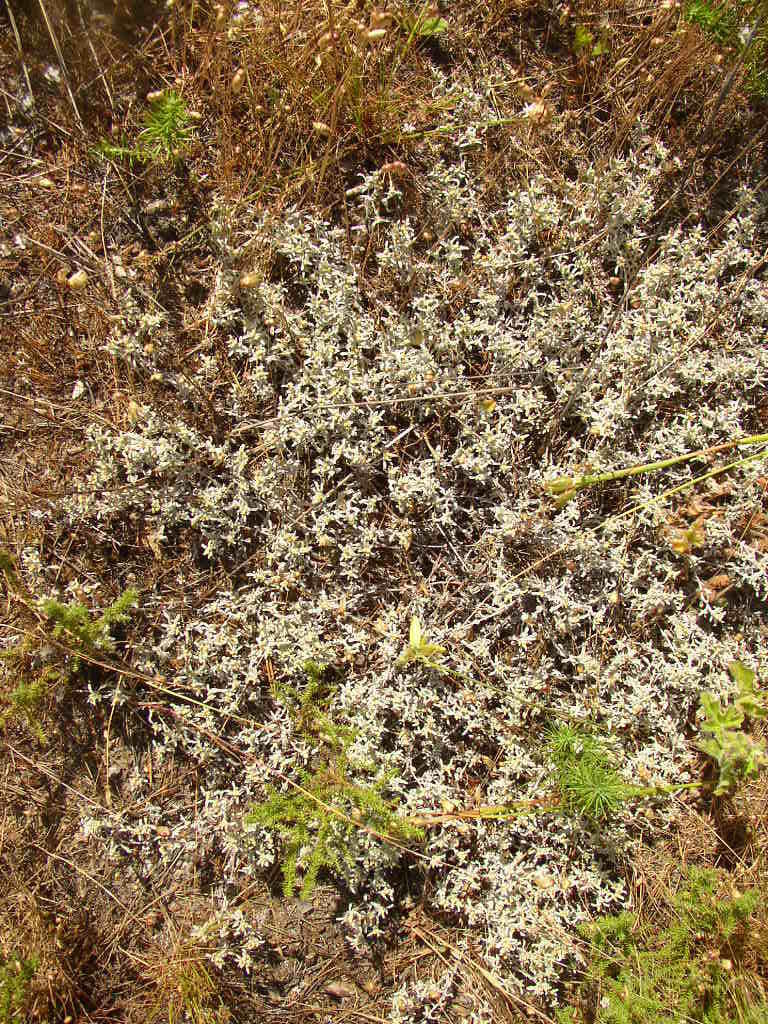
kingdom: Plantae
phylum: Tracheophyta
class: Magnoliopsida
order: Asterales
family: Asteraceae
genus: Helichrysum
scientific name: Helichrysum litorale
